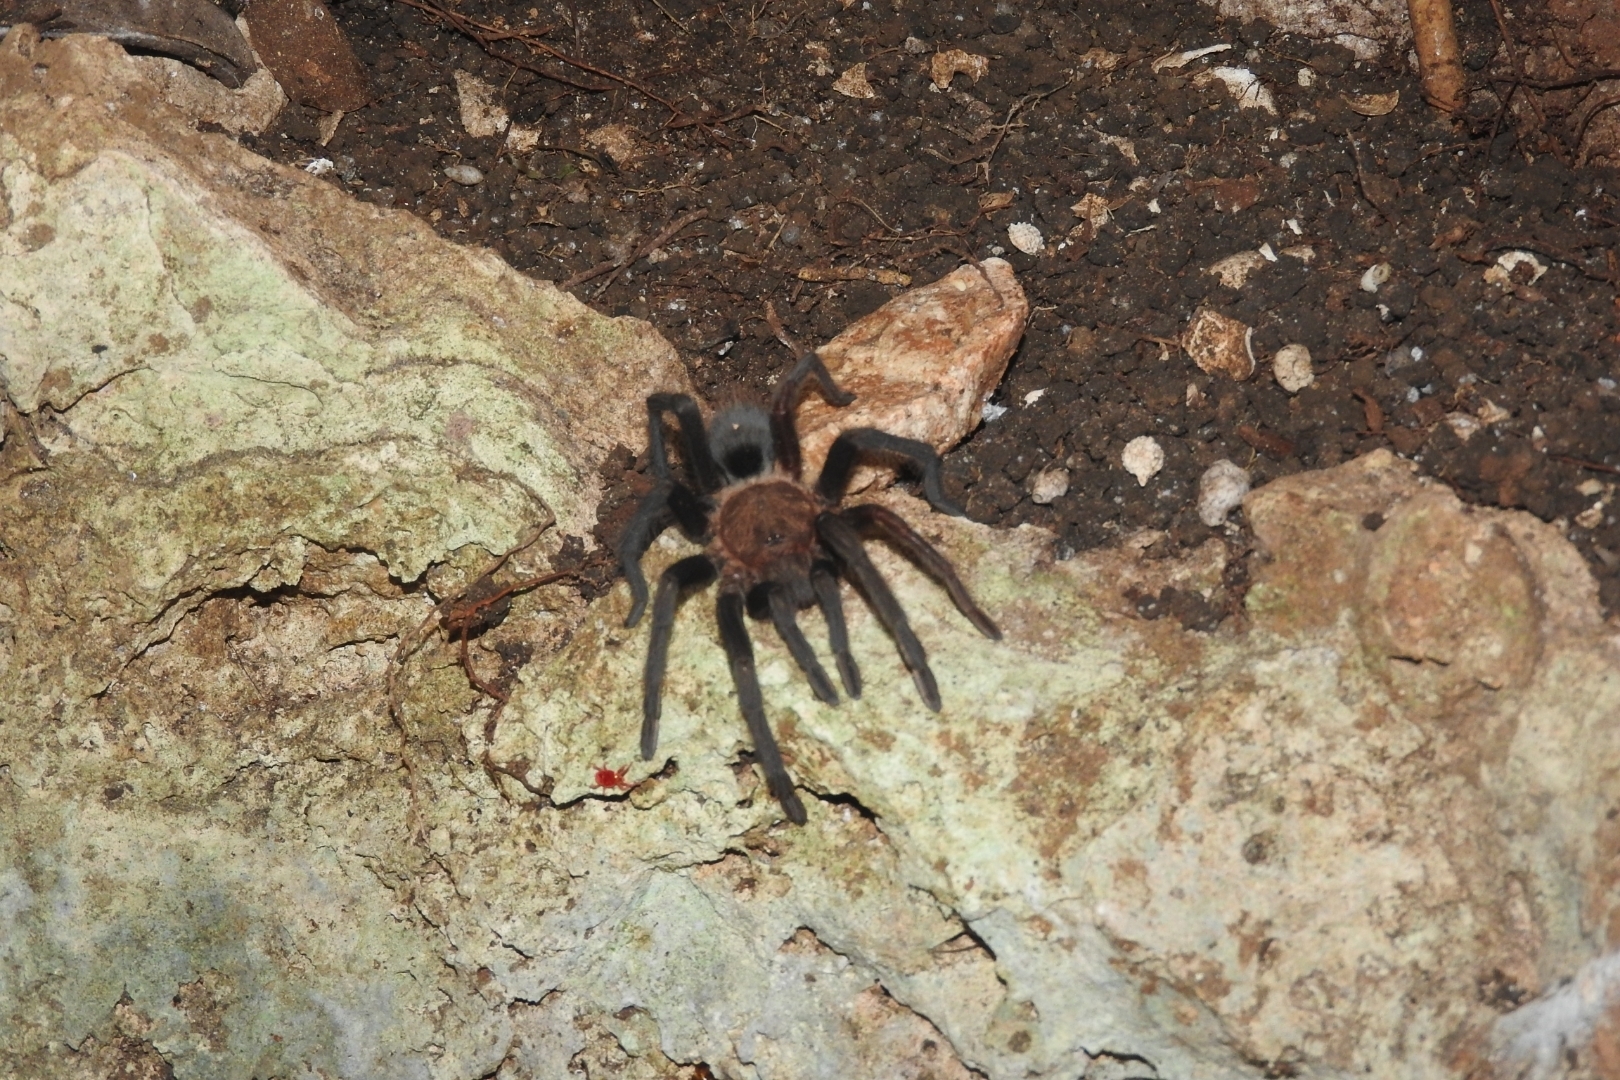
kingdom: Animalia
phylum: Arthropoda
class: Arachnida
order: Araneae
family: Theraphosidae
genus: Tliltocatl
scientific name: Tliltocatl epicureanus
